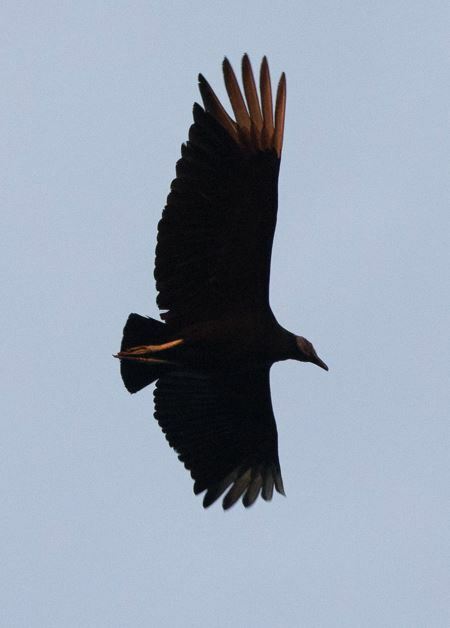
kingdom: Animalia
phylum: Chordata
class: Aves
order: Accipitriformes
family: Cathartidae
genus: Coragyps
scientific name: Coragyps atratus
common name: Black vulture
